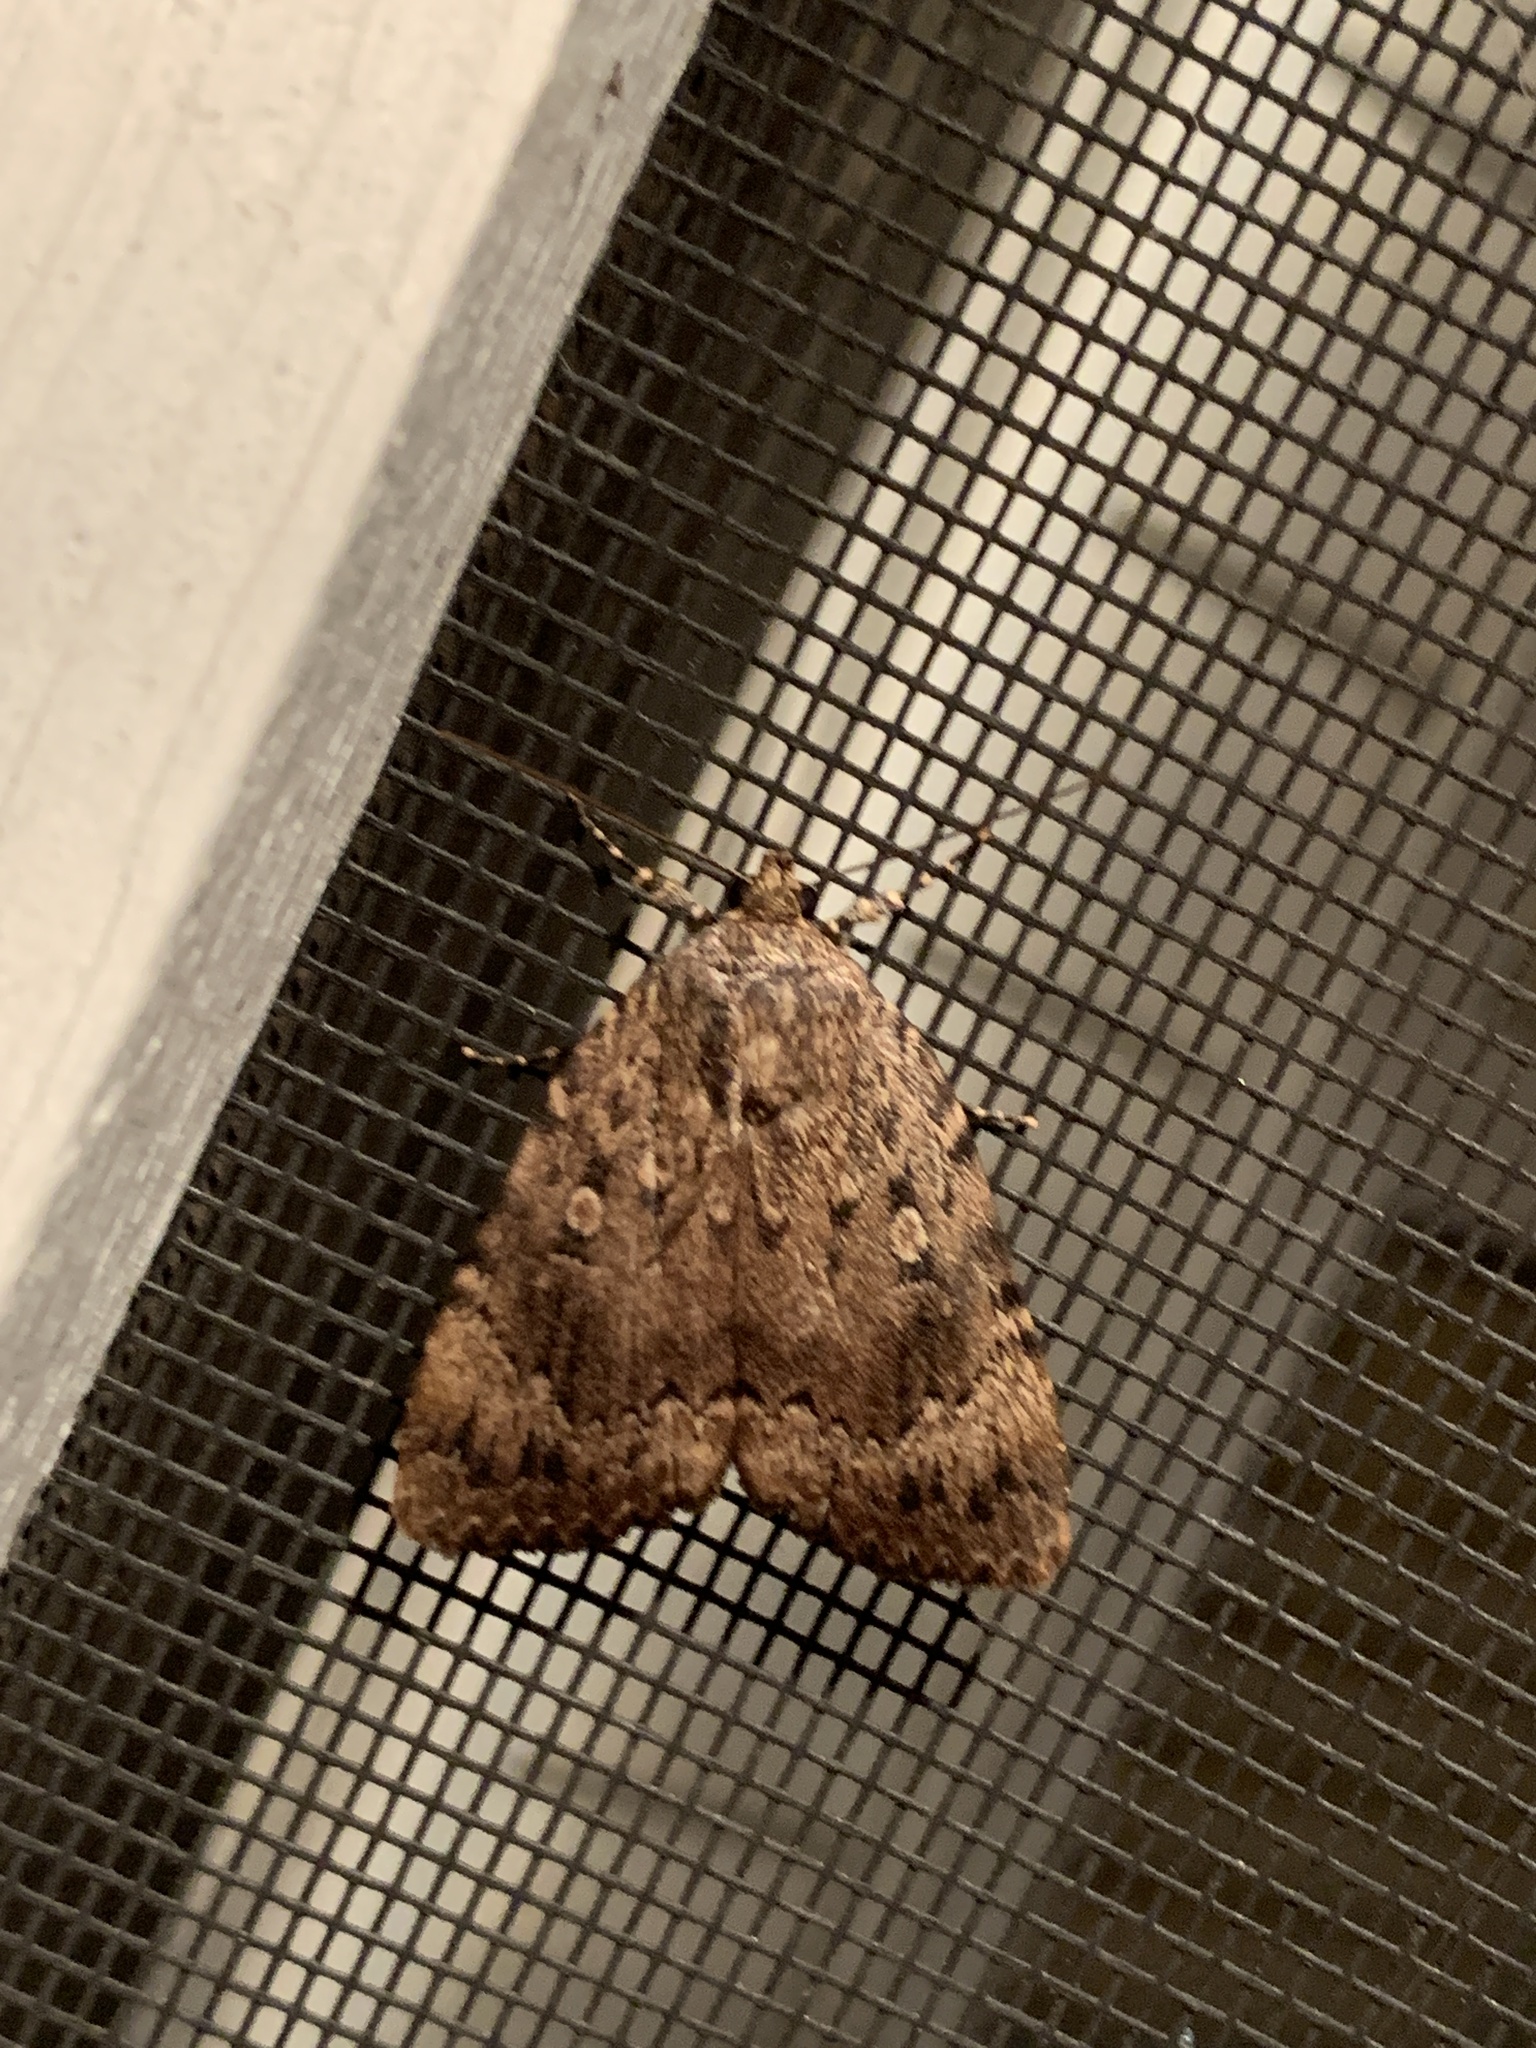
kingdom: Animalia
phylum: Arthropoda
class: Insecta
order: Lepidoptera
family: Noctuidae
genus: Amphipyra
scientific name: Amphipyra pyramidoides
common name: American copper underwing
